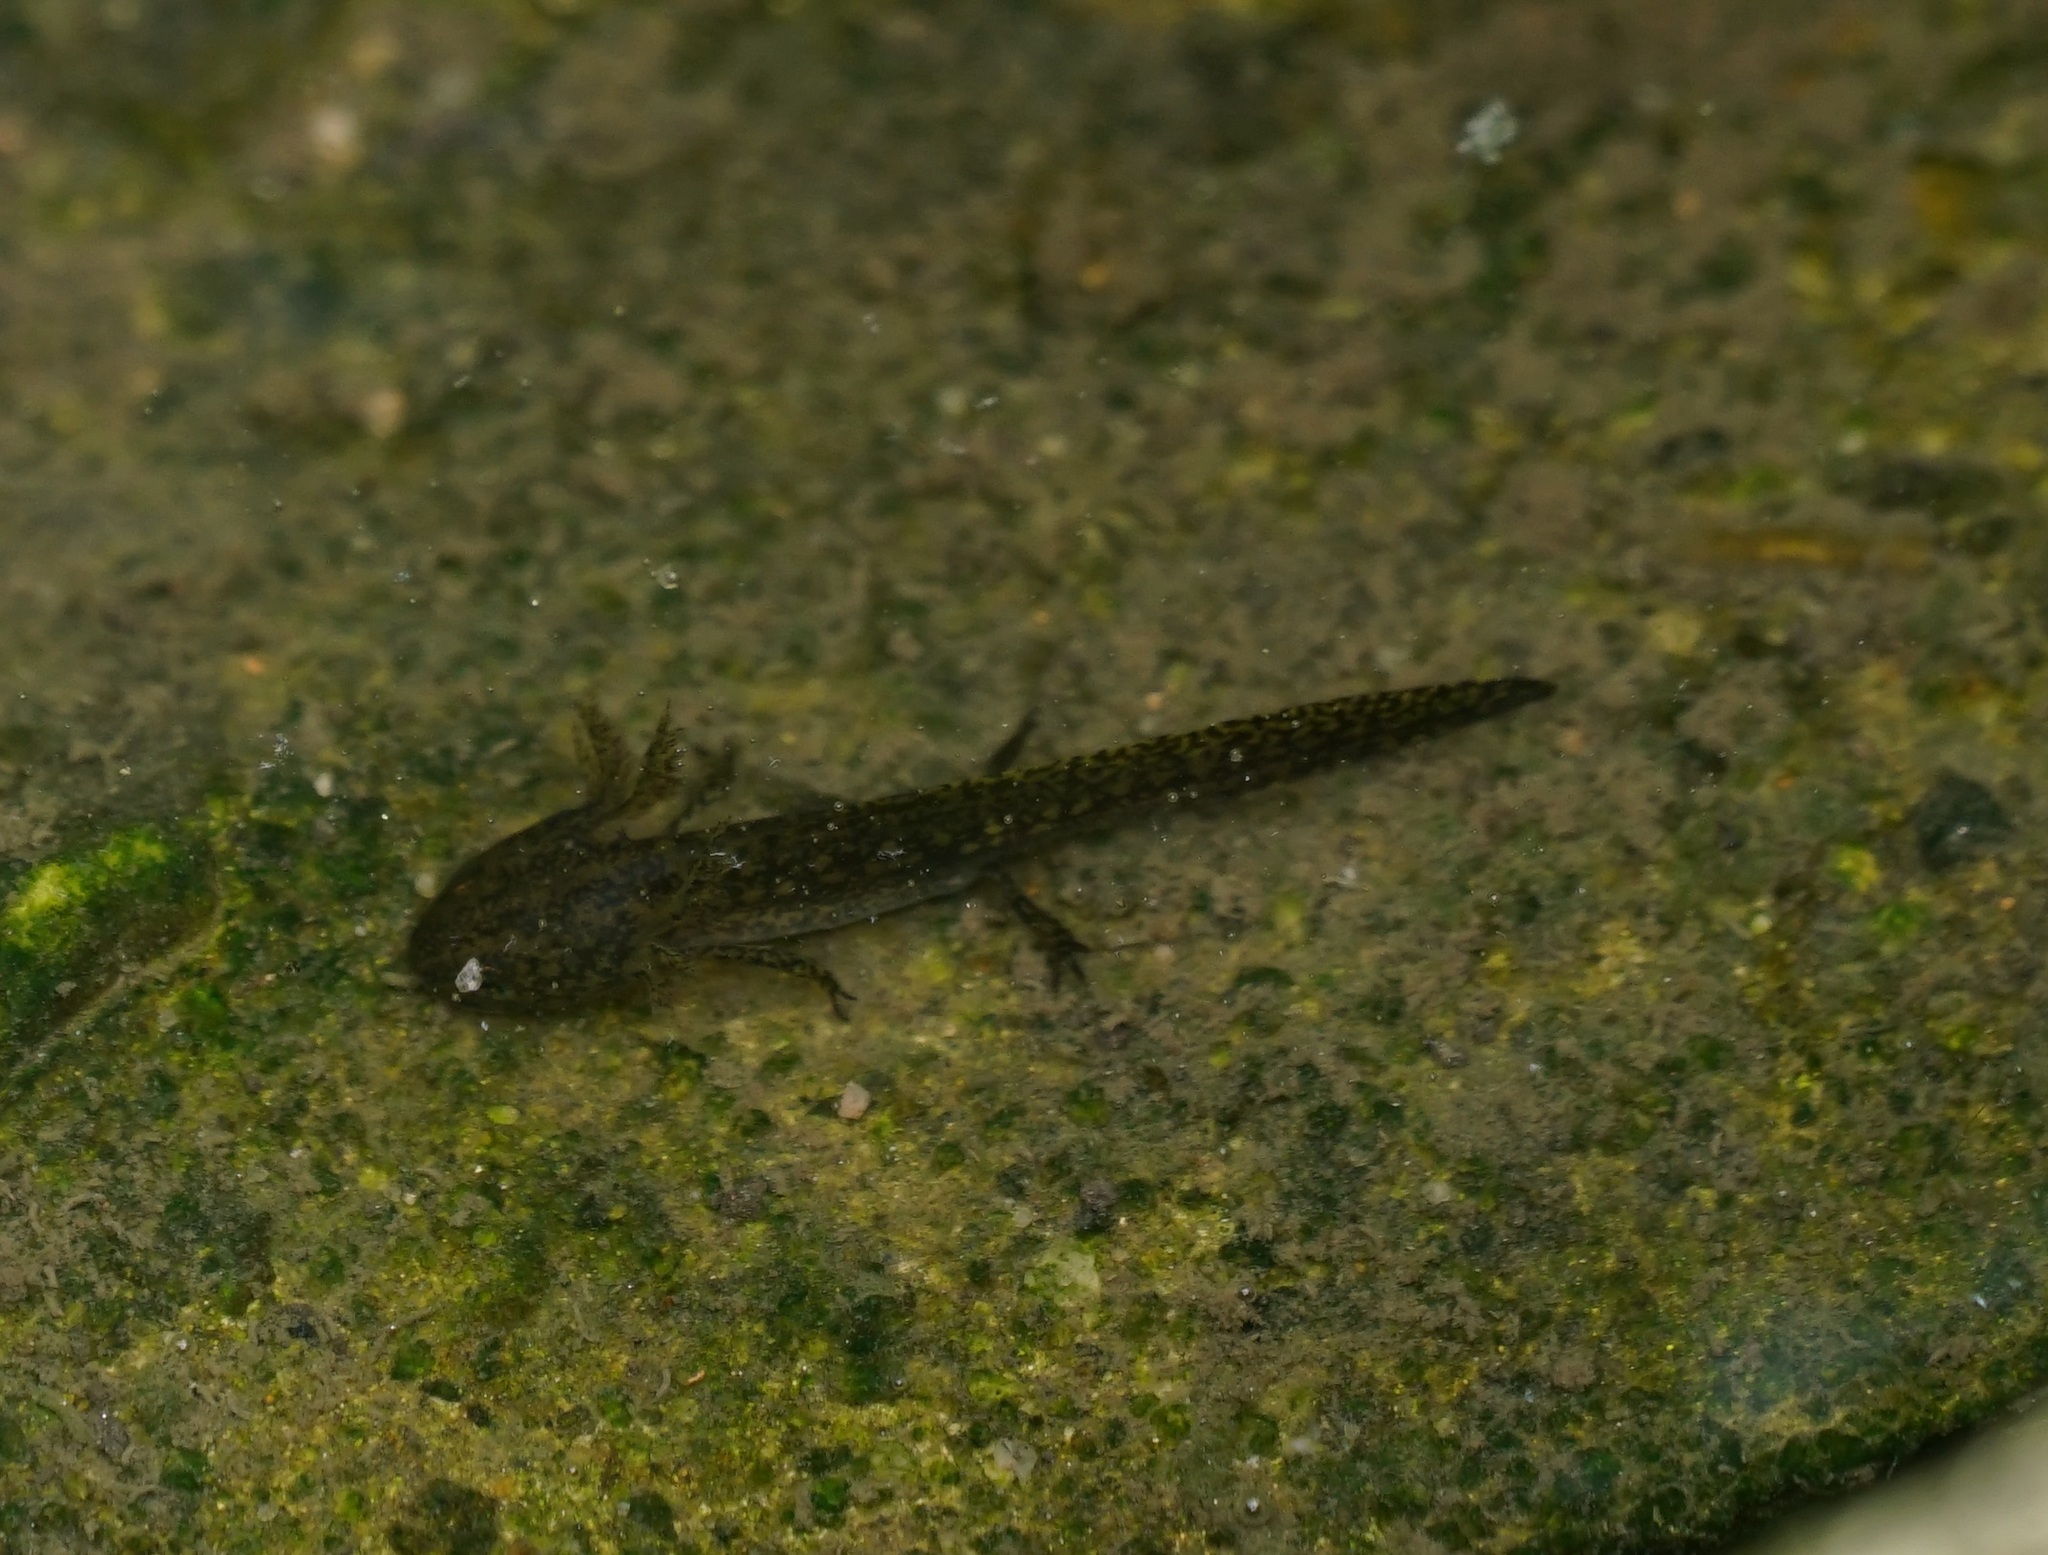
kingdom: Animalia
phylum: Chordata
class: Amphibia
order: Caudata
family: Salamandridae
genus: Lissotriton
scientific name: Lissotriton vulgaris
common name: Smooth newt
